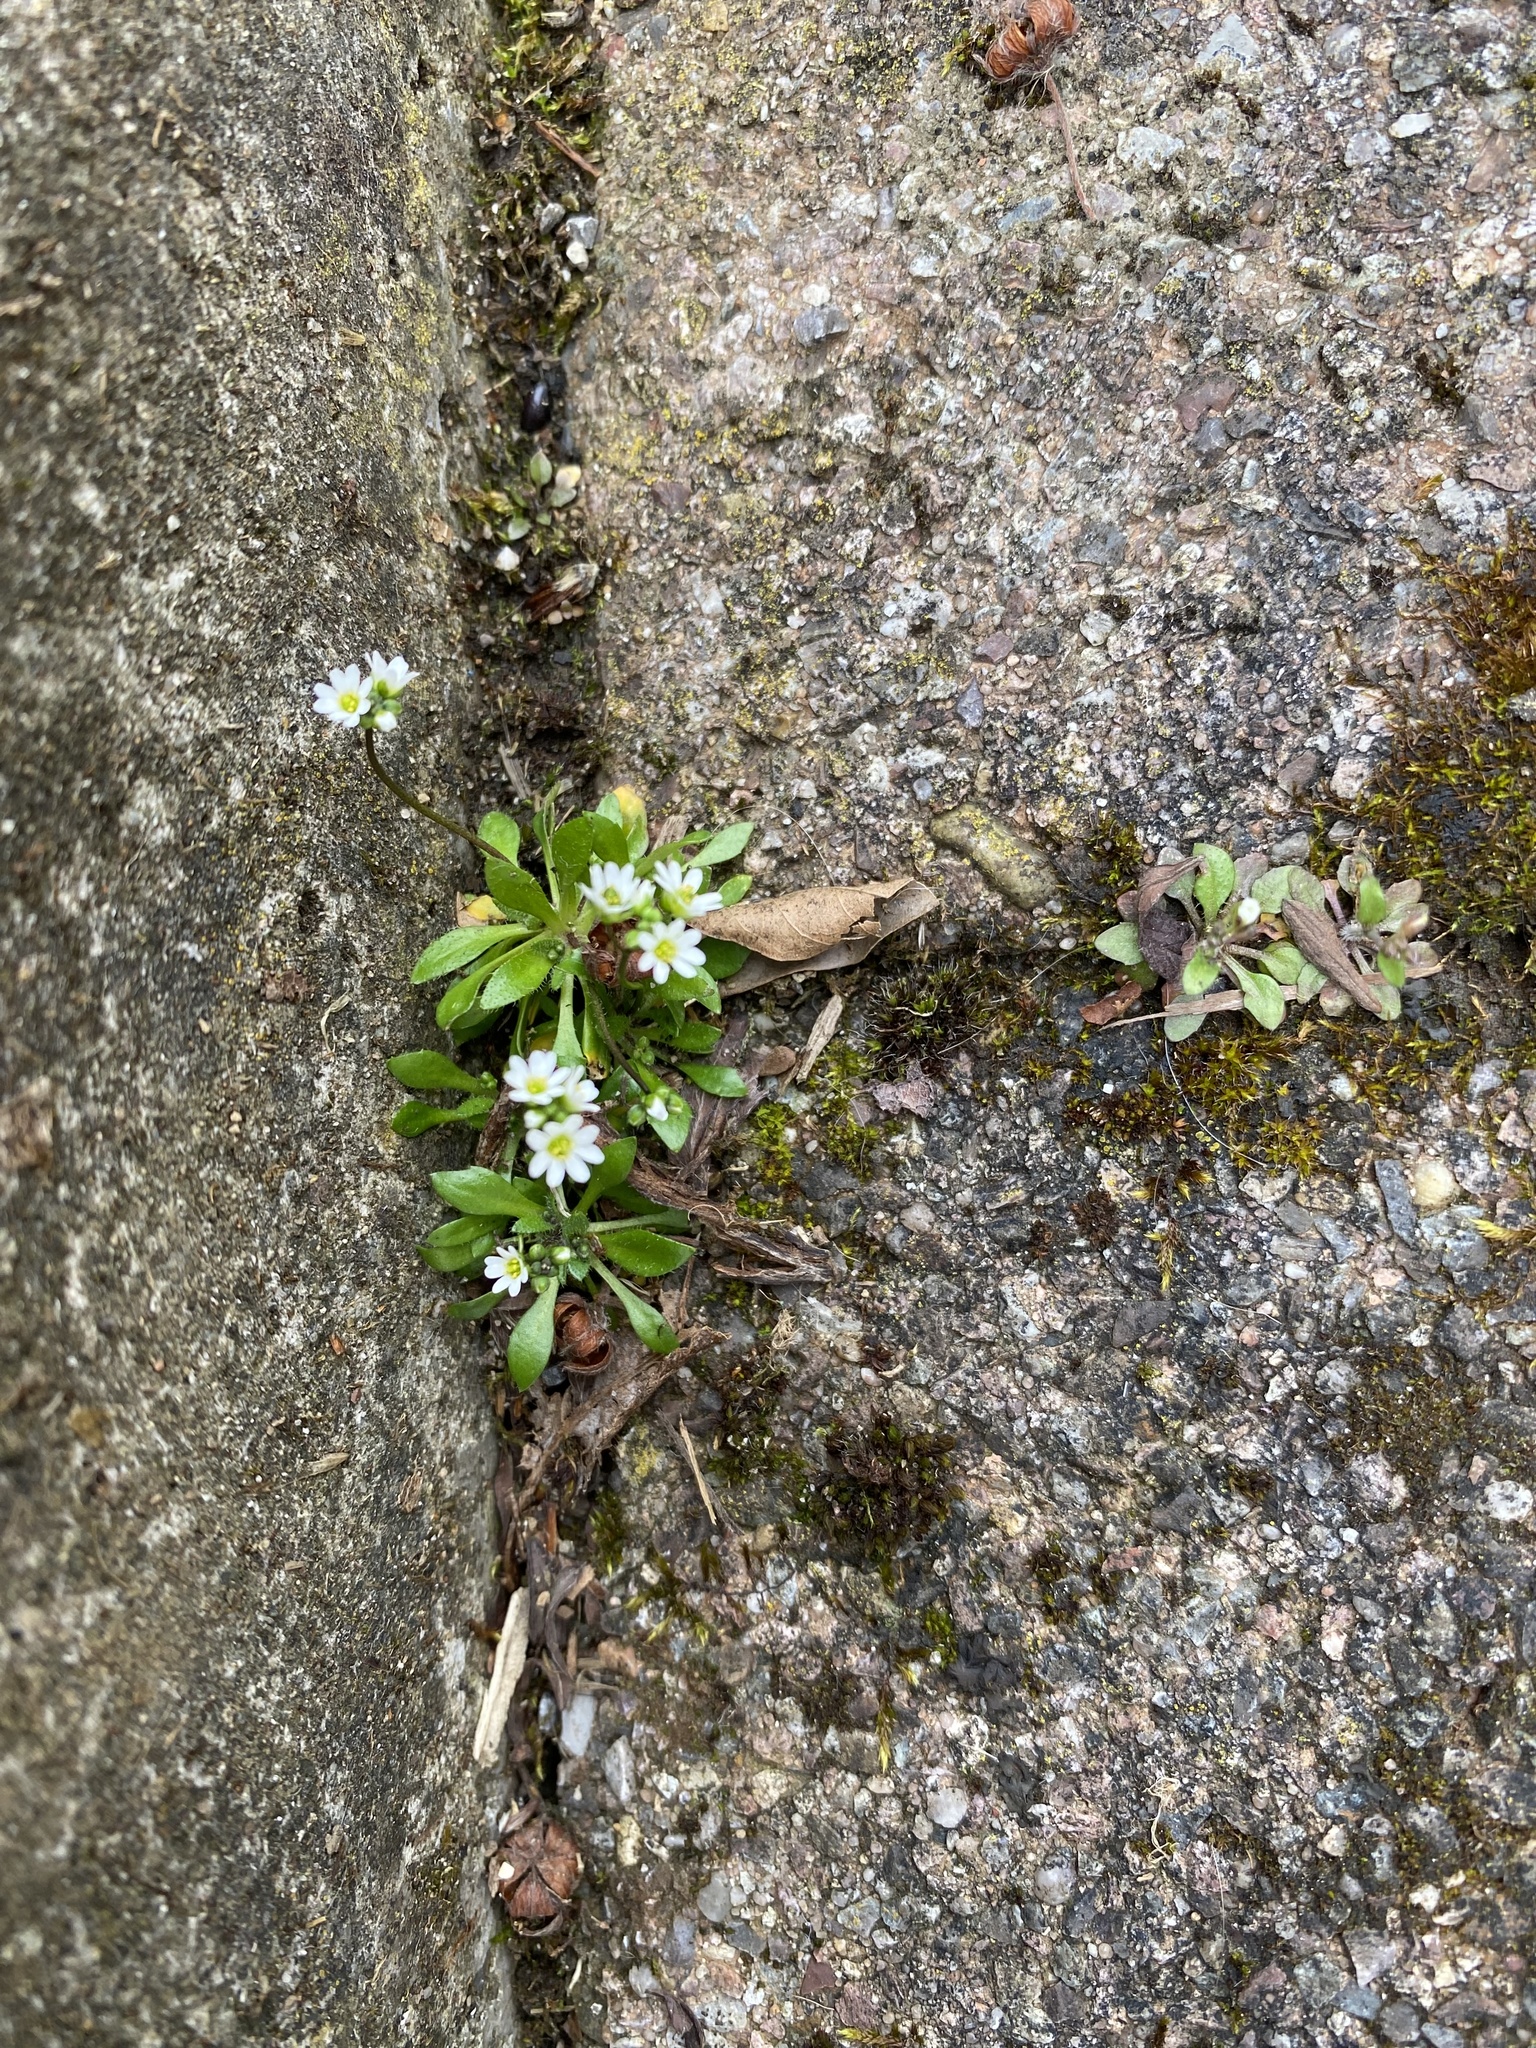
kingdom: Plantae
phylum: Tracheophyta
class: Magnoliopsida
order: Brassicales
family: Brassicaceae
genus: Draba
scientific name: Draba verna
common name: Spring draba
